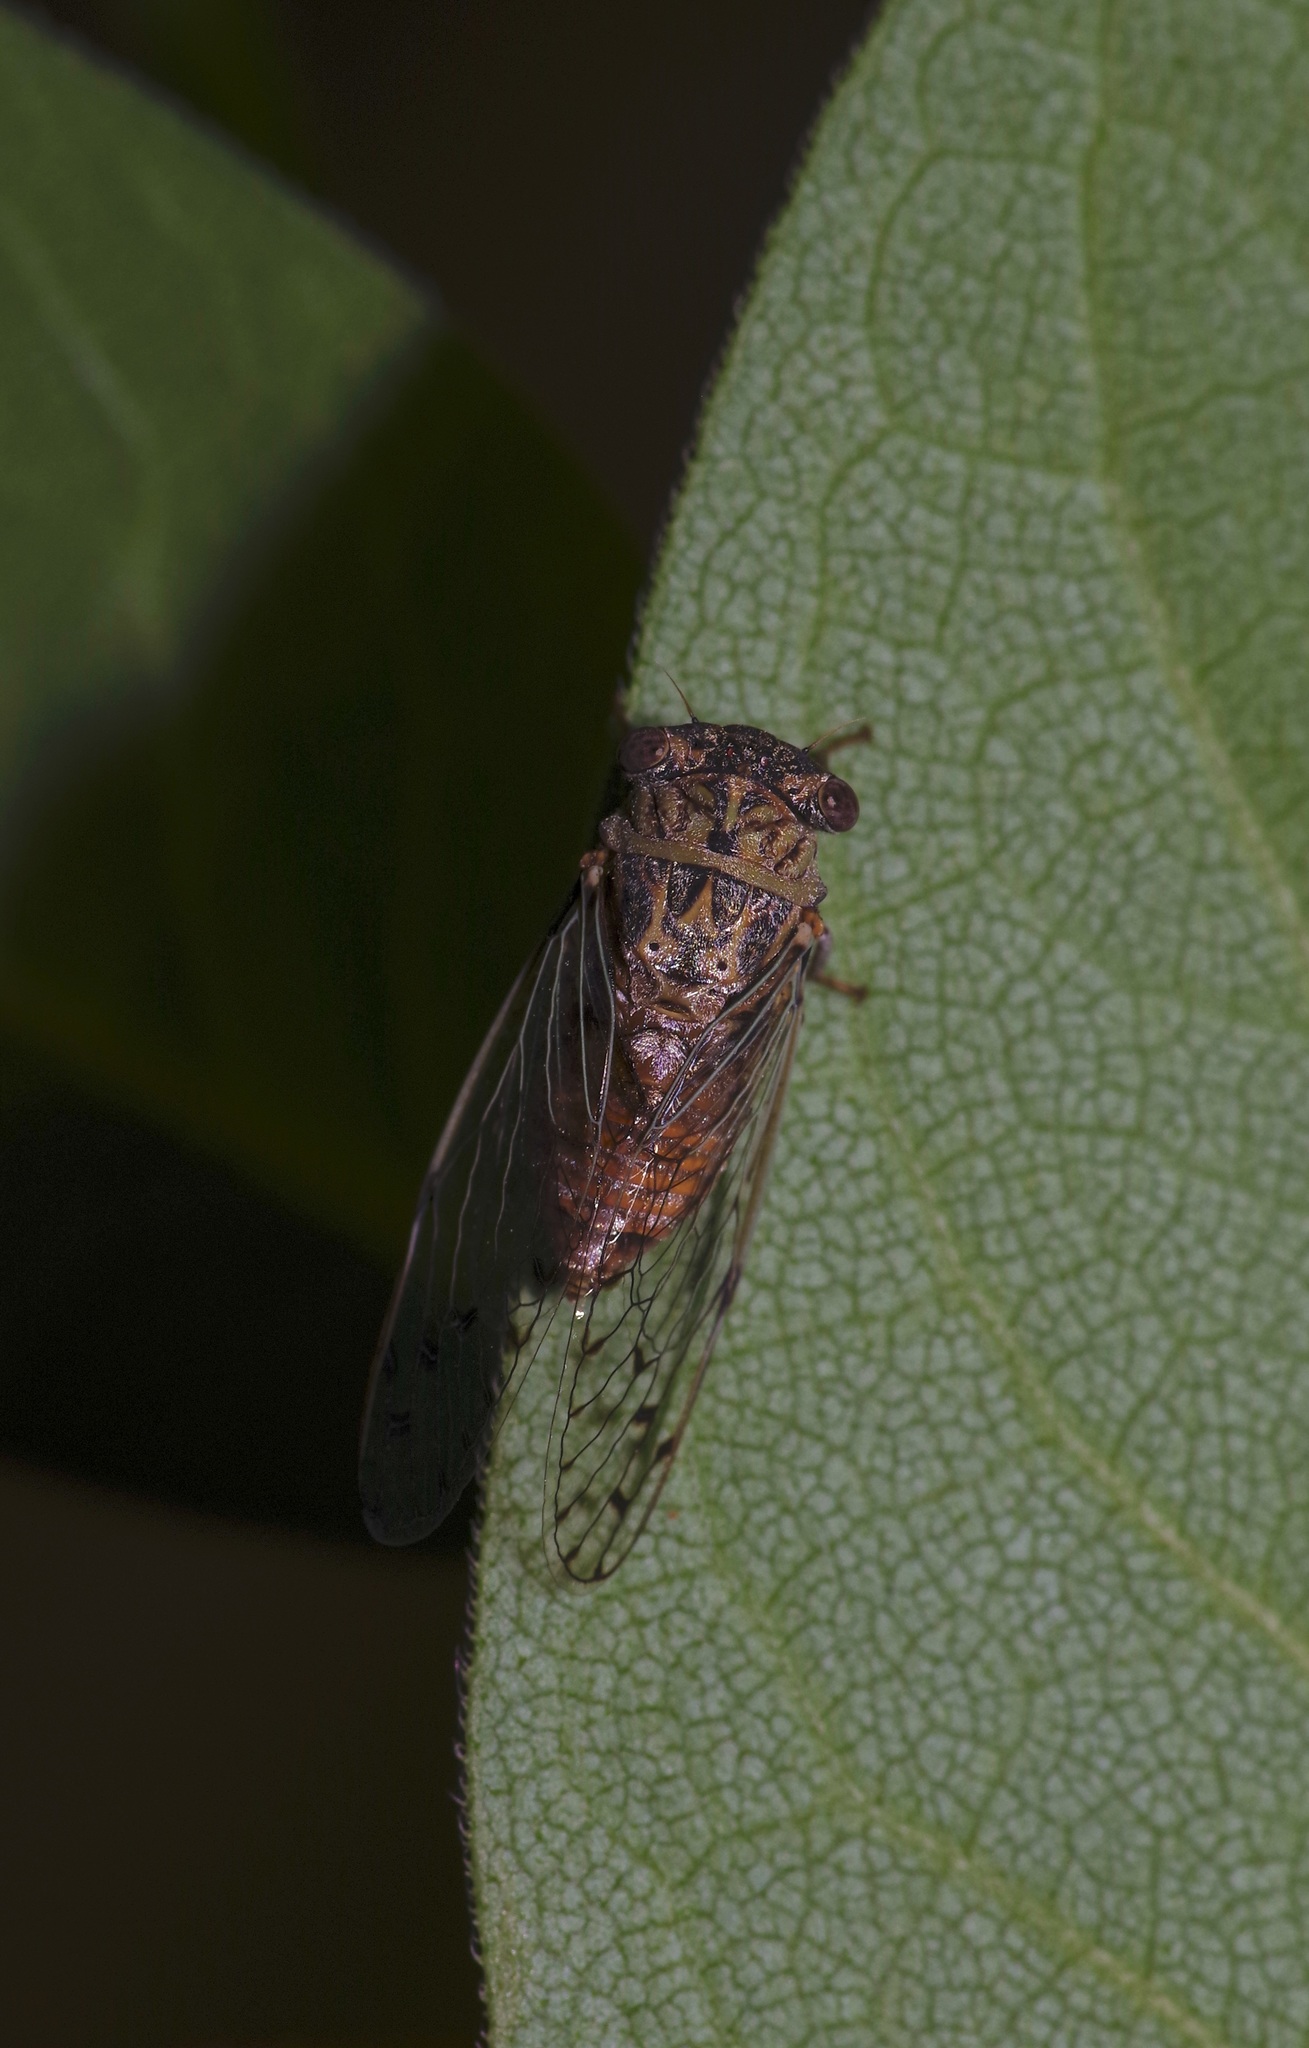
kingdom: Animalia
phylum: Arthropoda
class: Insecta
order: Hemiptera
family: Cicadidae
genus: Pacarina
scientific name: Pacarina puella
